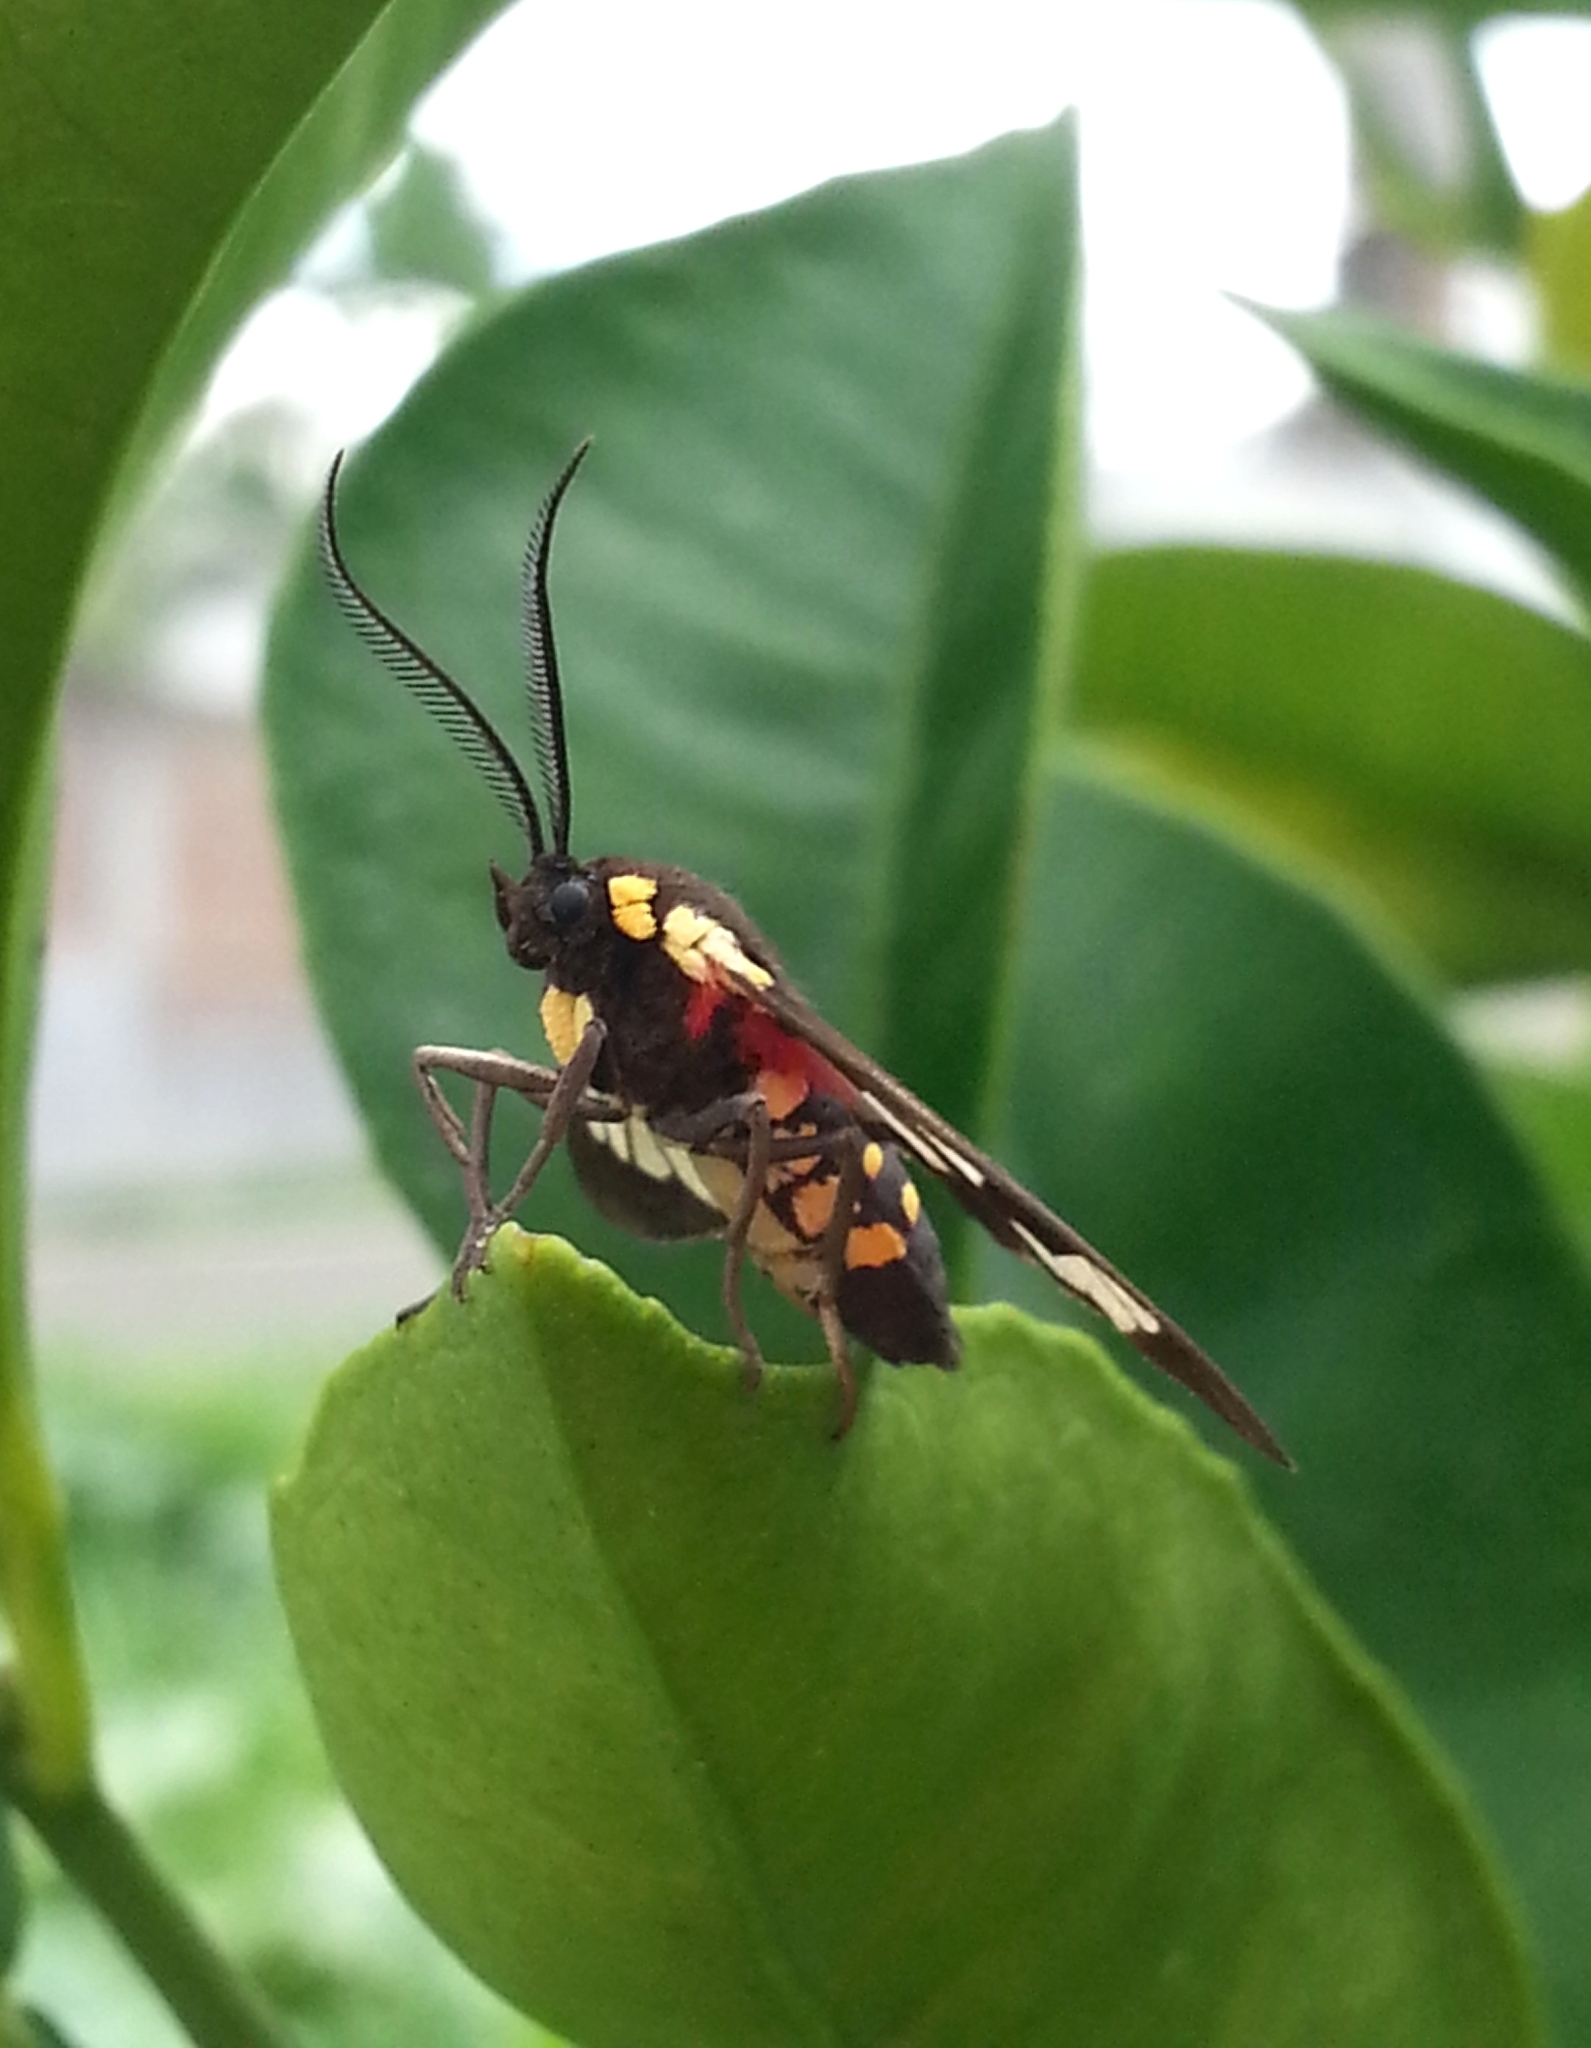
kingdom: Animalia
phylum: Arthropoda
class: Insecta
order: Lepidoptera
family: Erebidae
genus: Eurata
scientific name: Eurata hermione
